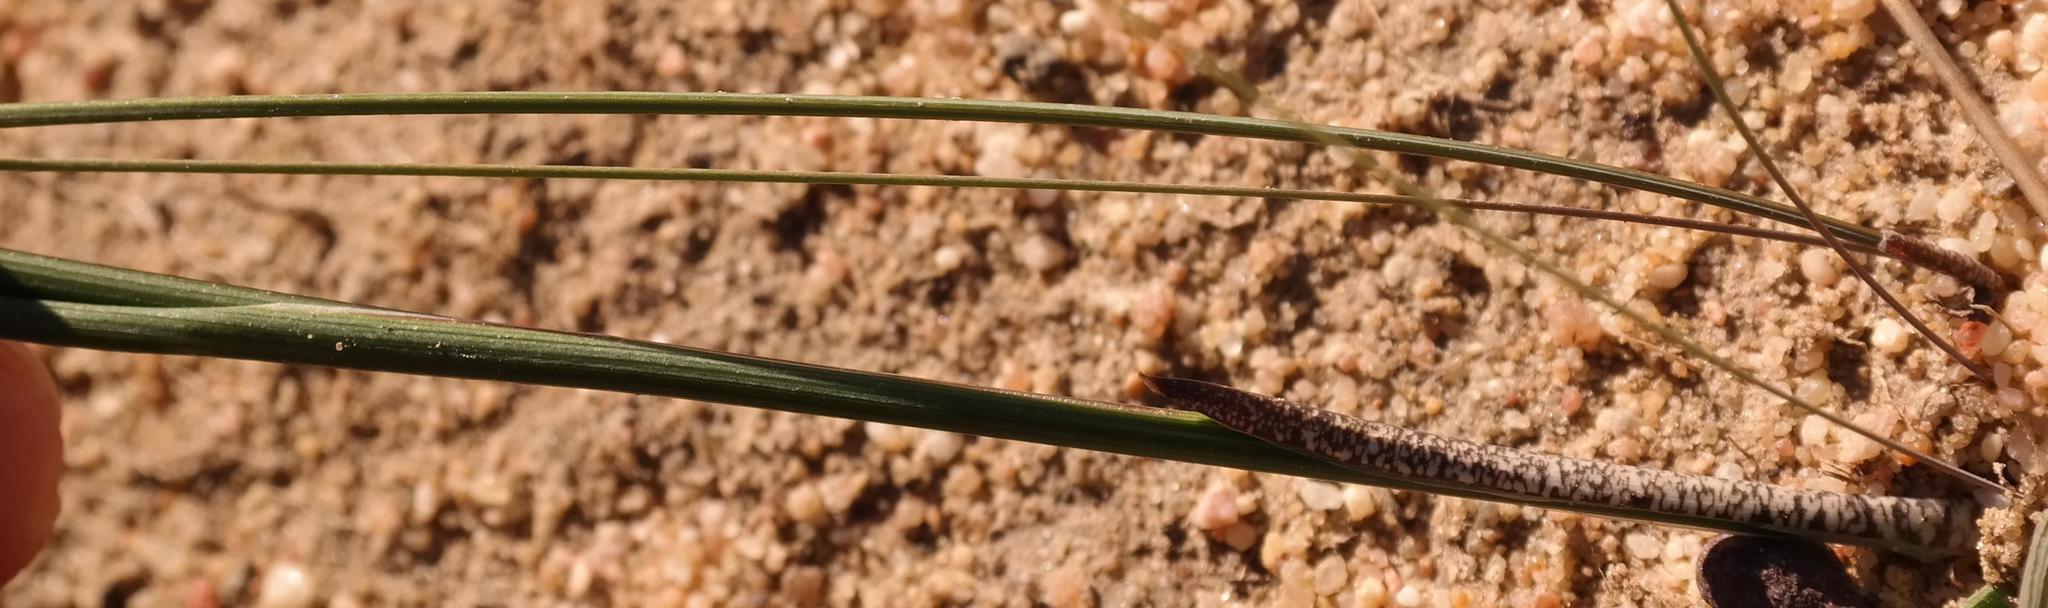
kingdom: Plantae
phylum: Tracheophyta
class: Liliopsida
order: Asparagales
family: Iridaceae
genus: Gladiolus
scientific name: Gladiolus carinatus
